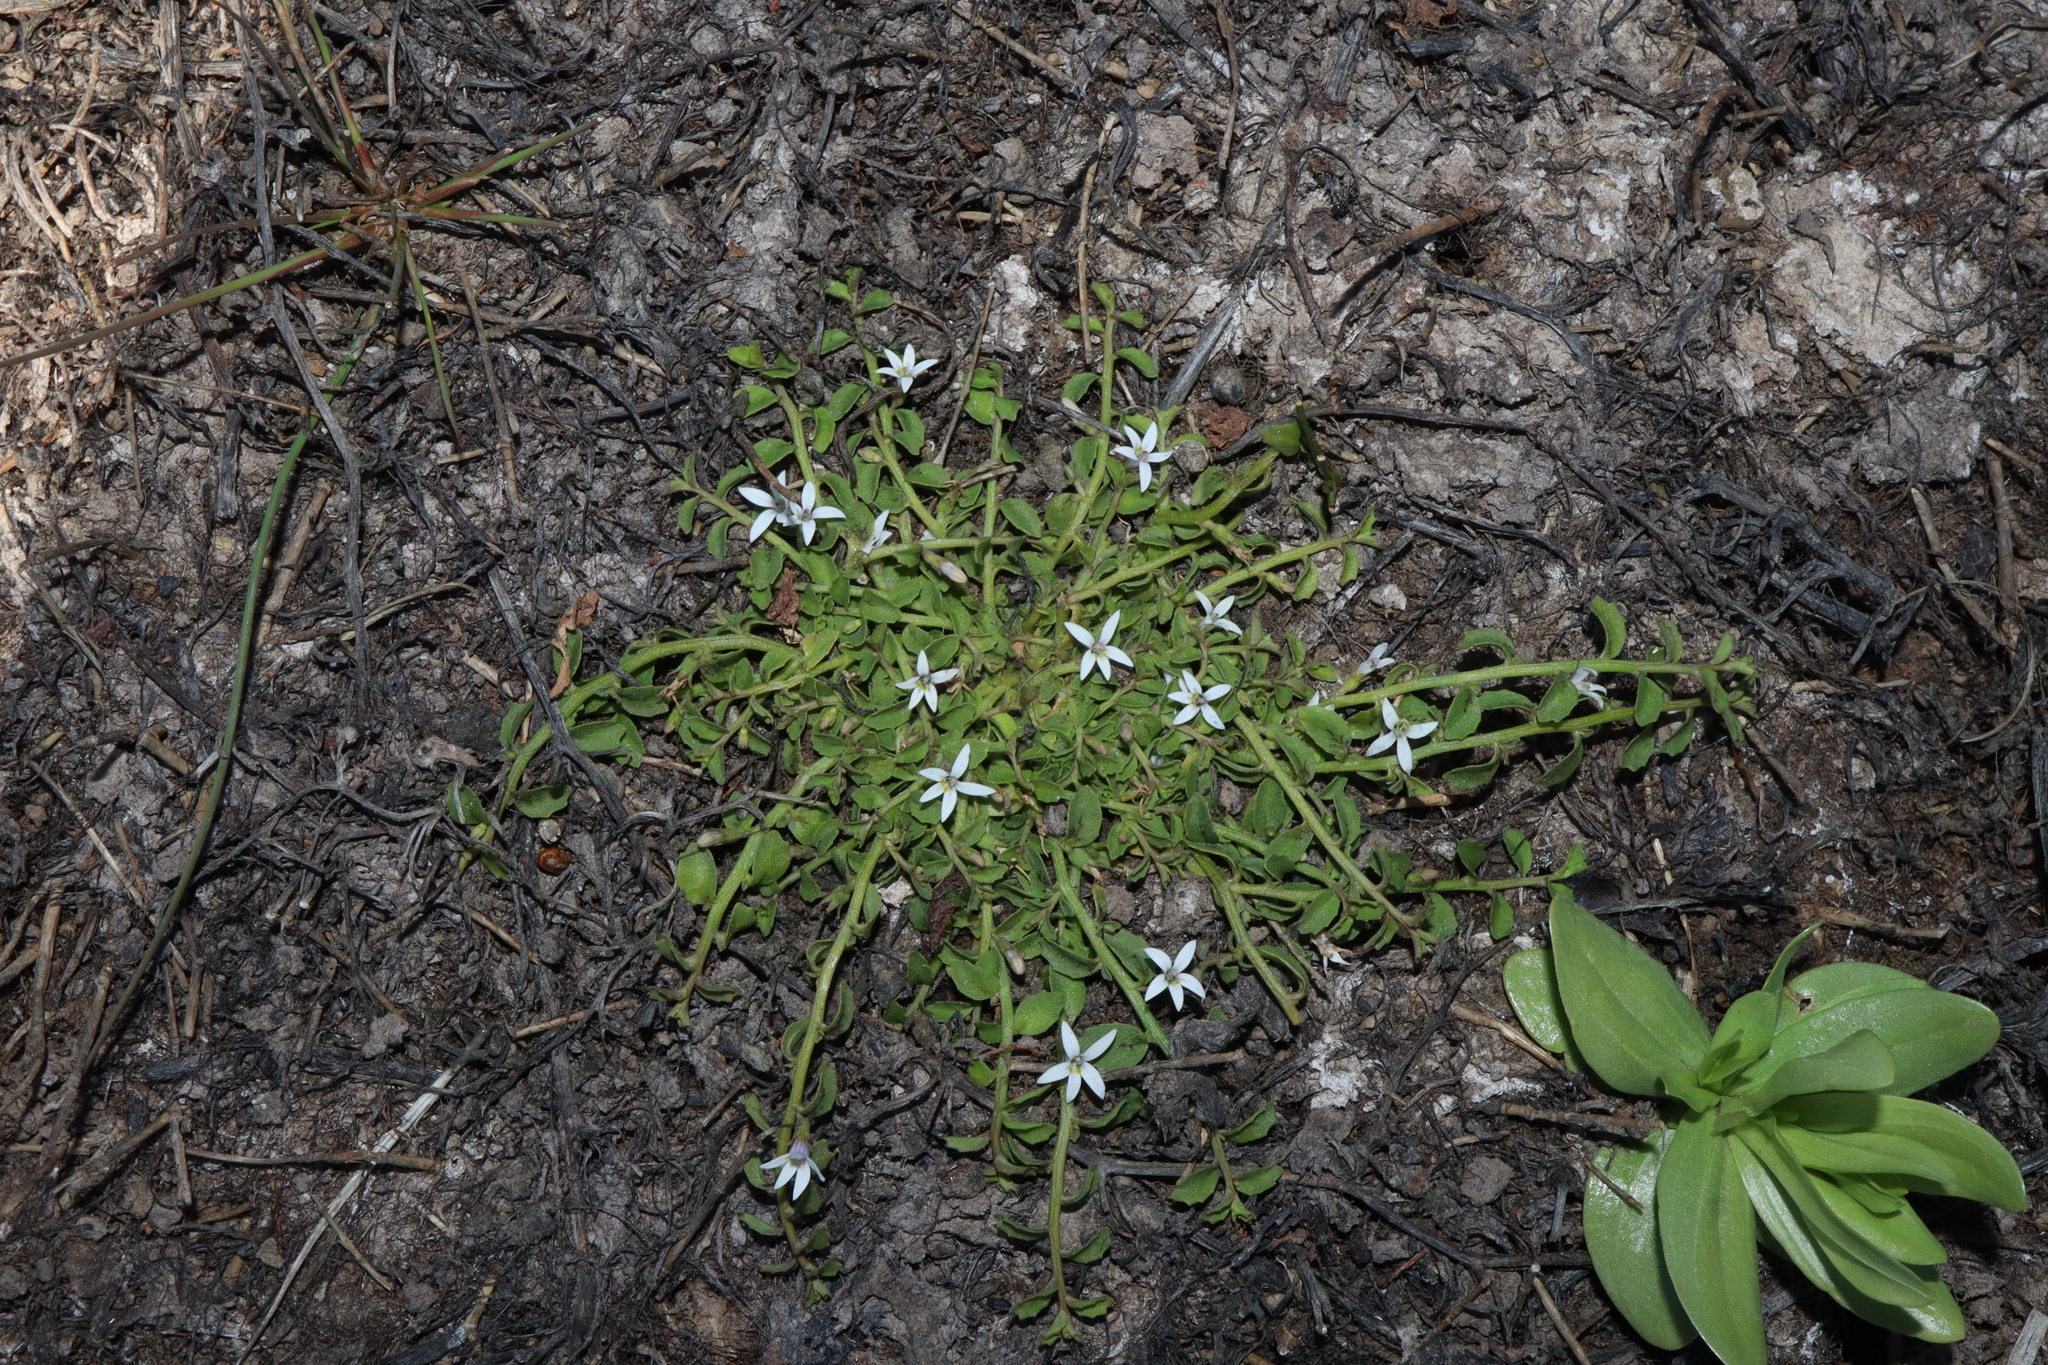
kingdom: Plantae
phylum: Tracheophyta
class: Magnoliopsida
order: Asterales
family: Campanulaceae
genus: Isotoma
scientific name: Isotoma fluviatilis
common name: Isotoma
